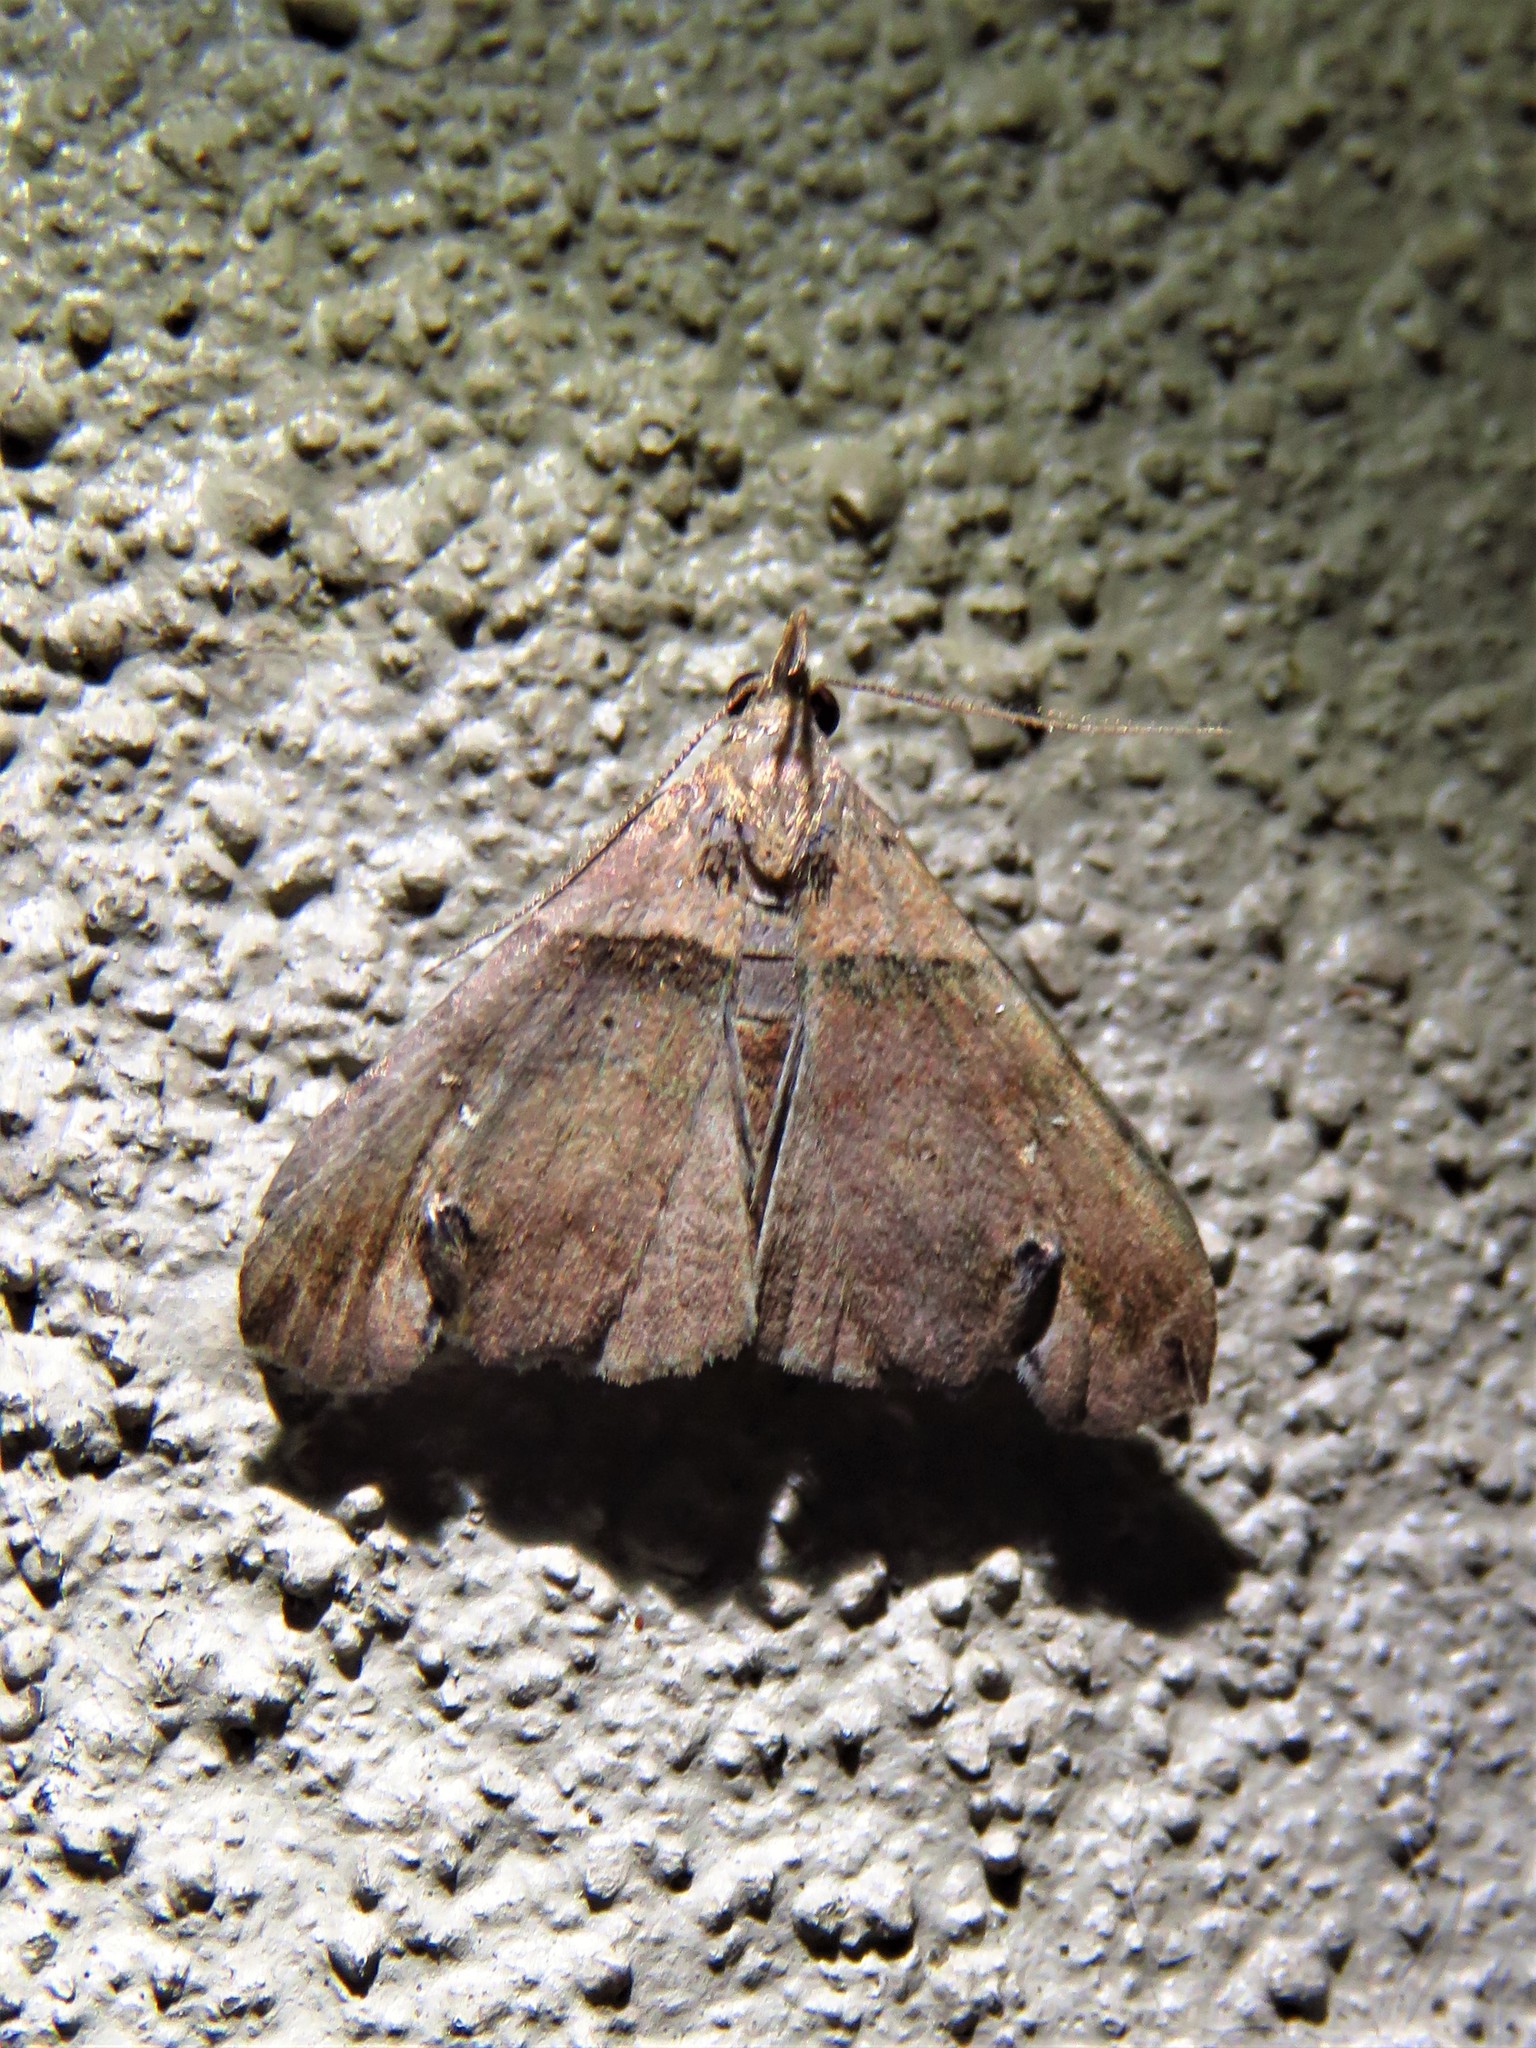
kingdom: Animalia
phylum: Arthropoda
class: Insecta
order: Lepidoptera
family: Erebidae
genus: Lascoria
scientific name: Lascoria ambigualis
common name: Ambiguous moth
